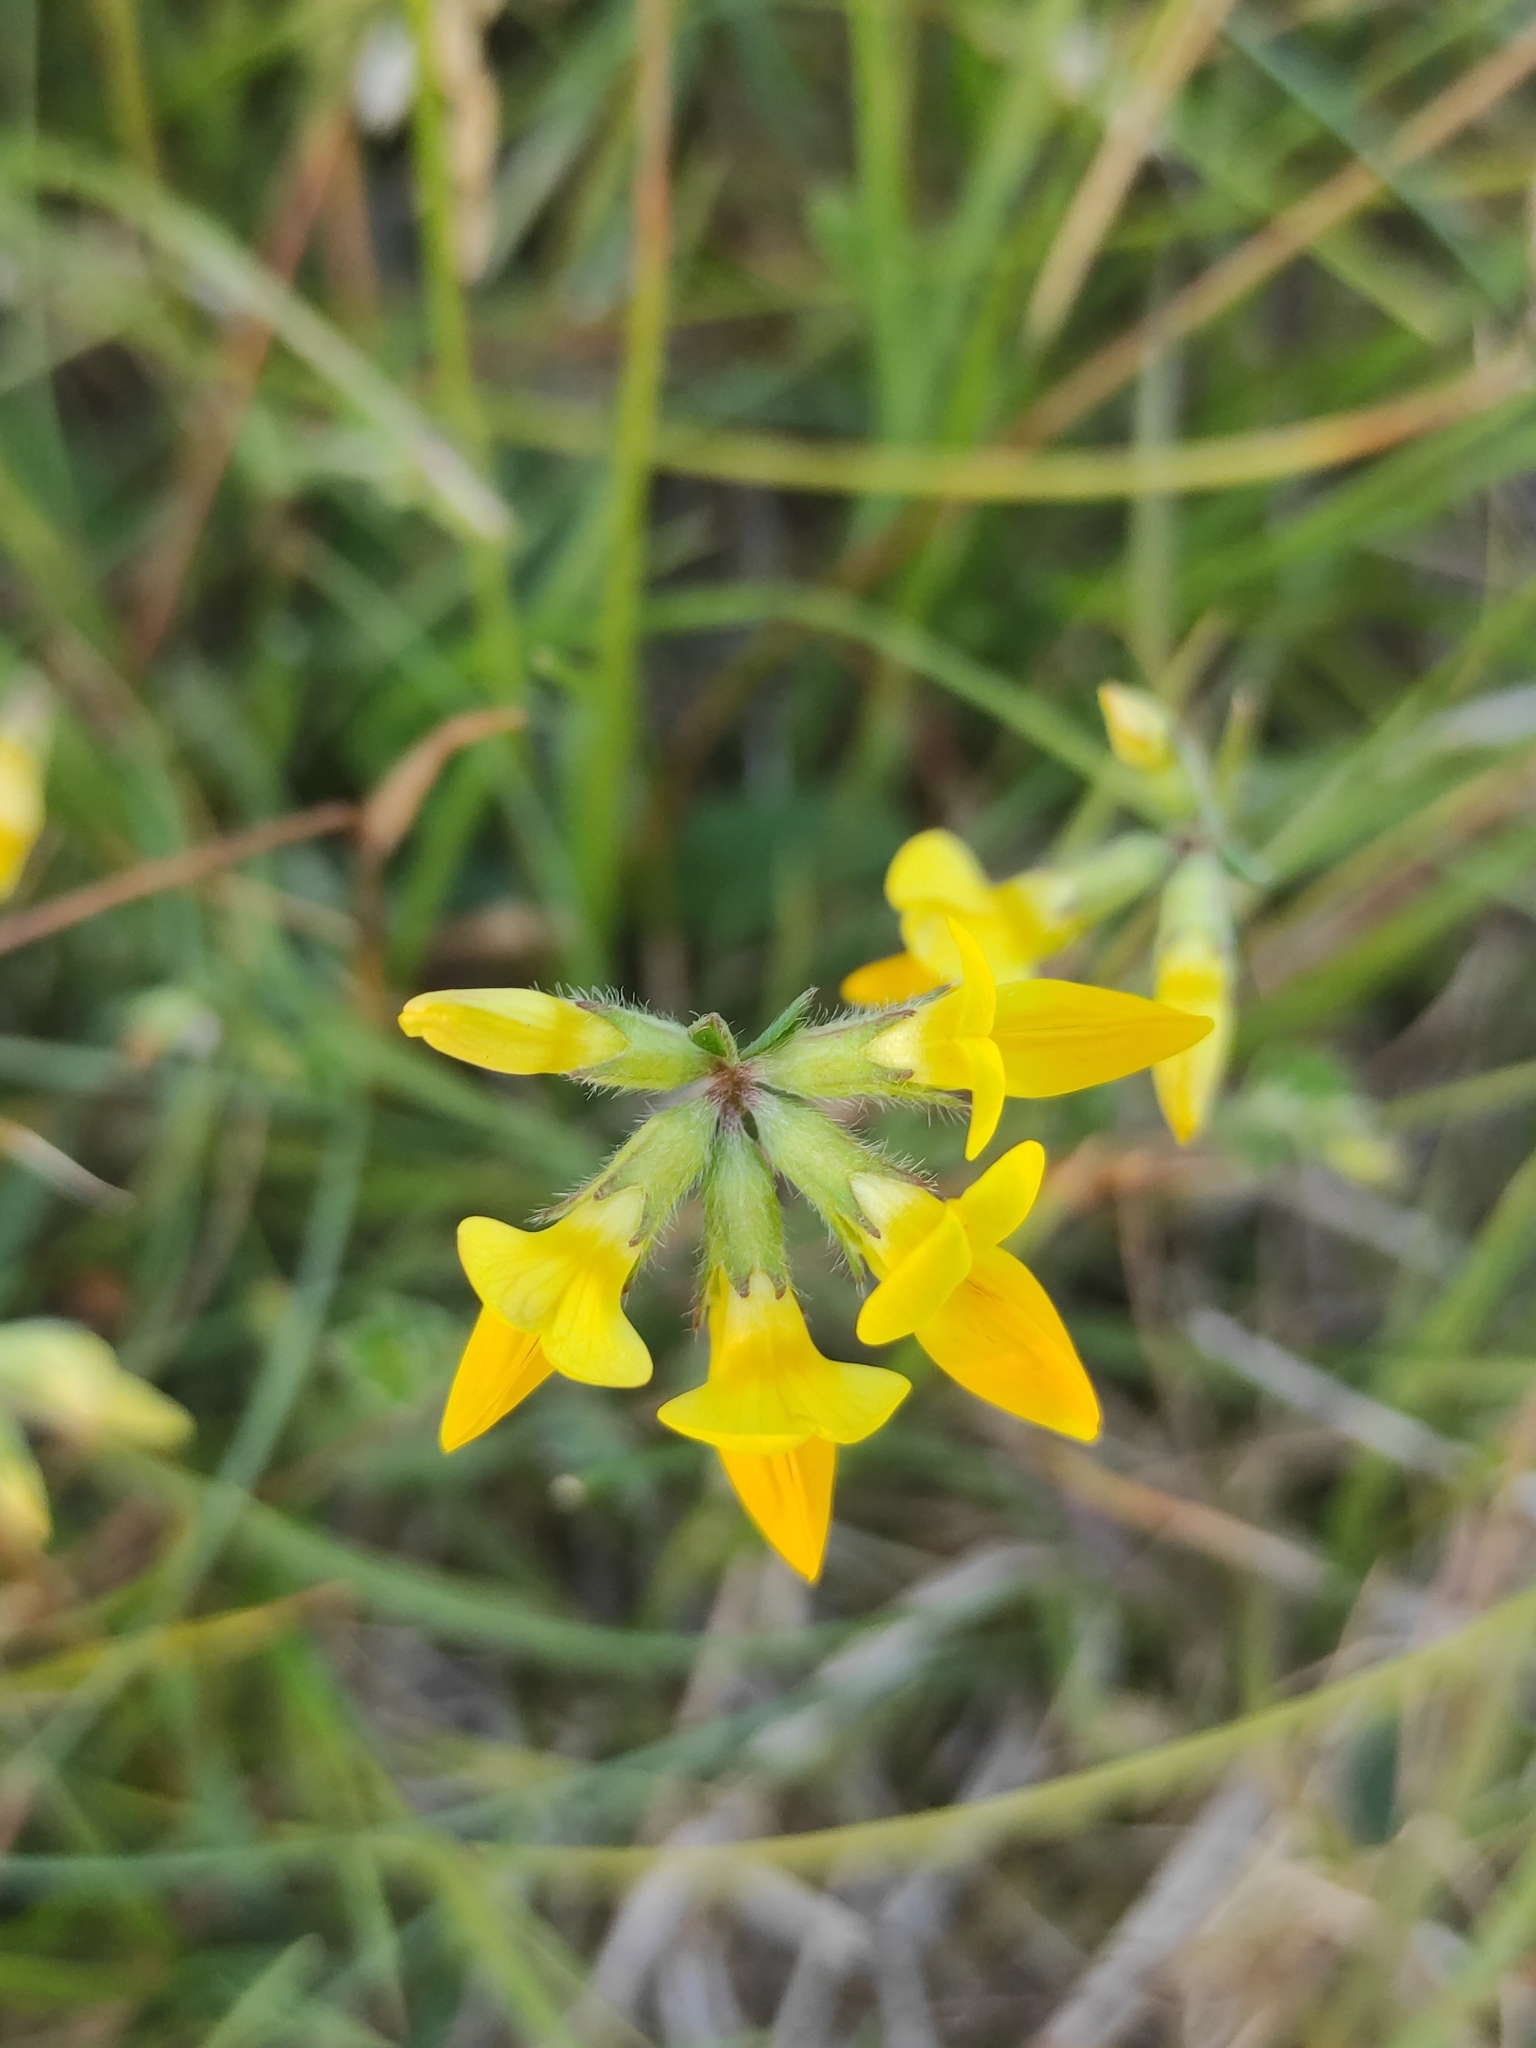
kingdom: Plantae
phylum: Tracheophyta
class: Magnoliopsida
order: Fabales
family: Fabaceae
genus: Lotus
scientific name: Lotus corniculatus
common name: Common bird's-foot-trefoil
